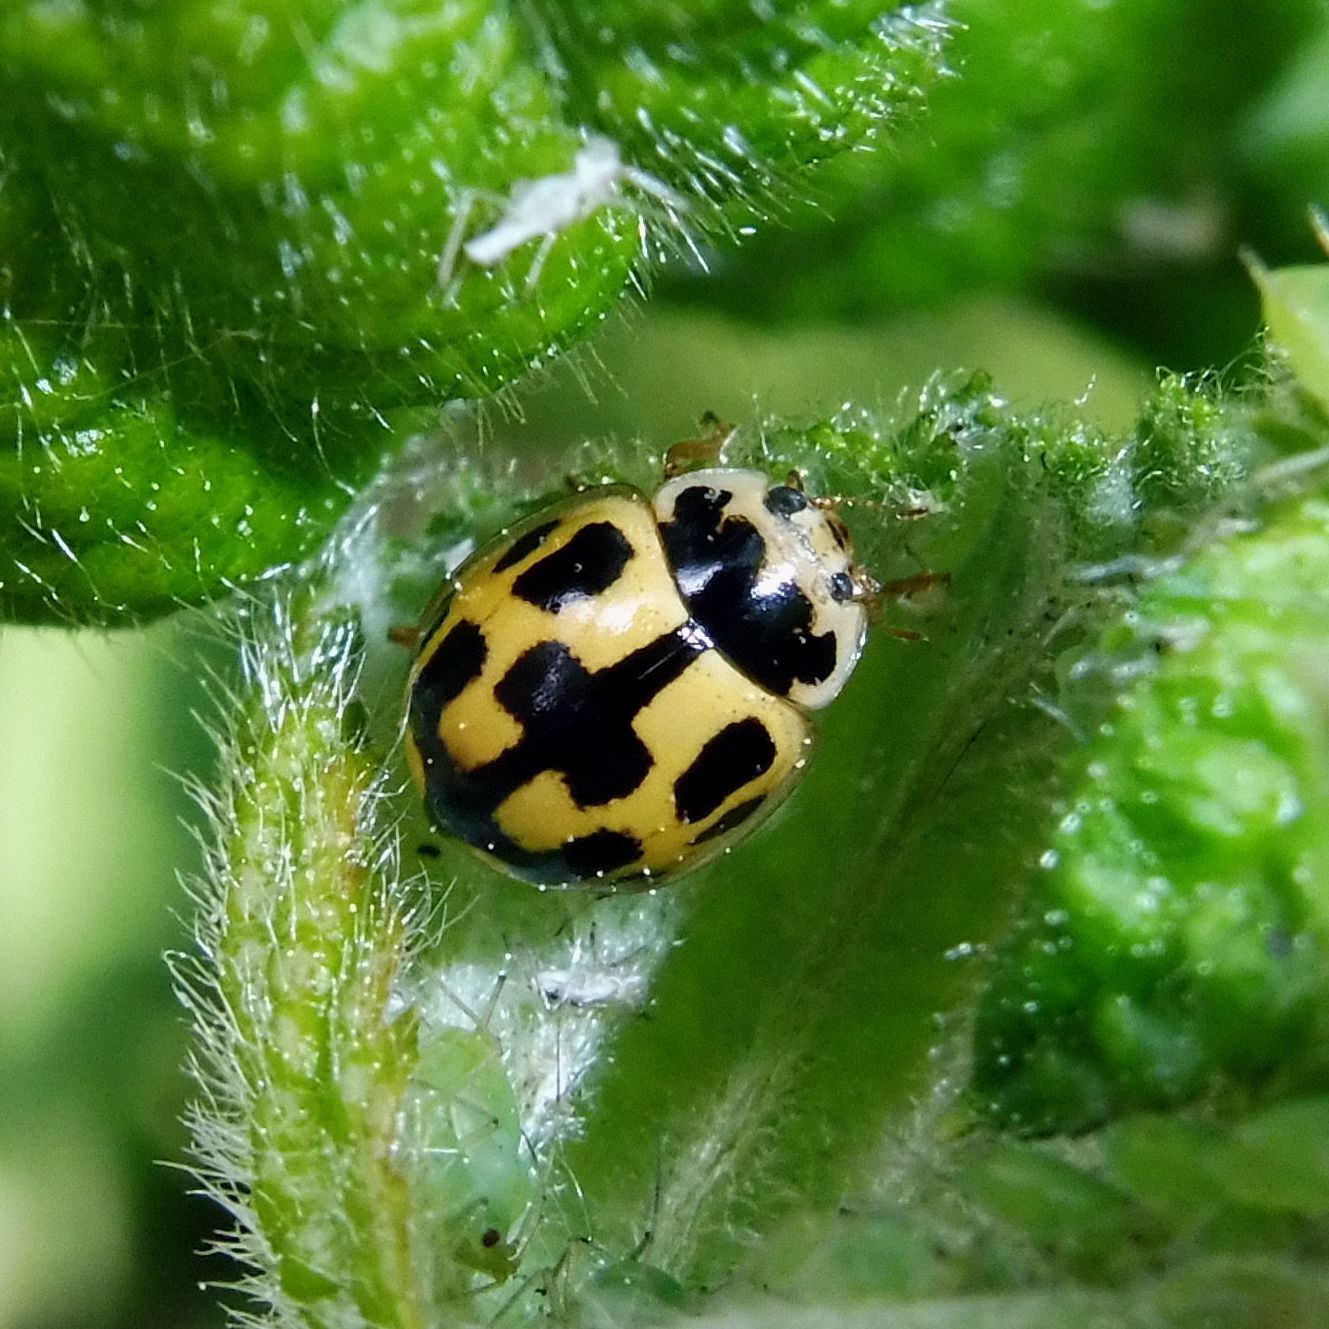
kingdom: Animalia
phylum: Arthropoda
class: Insecta
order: Coleoptera
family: Coccinellidae
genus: Propylaea
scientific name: Propylaea quatuordecimpunctata
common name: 14-spotted ladybird beetle
